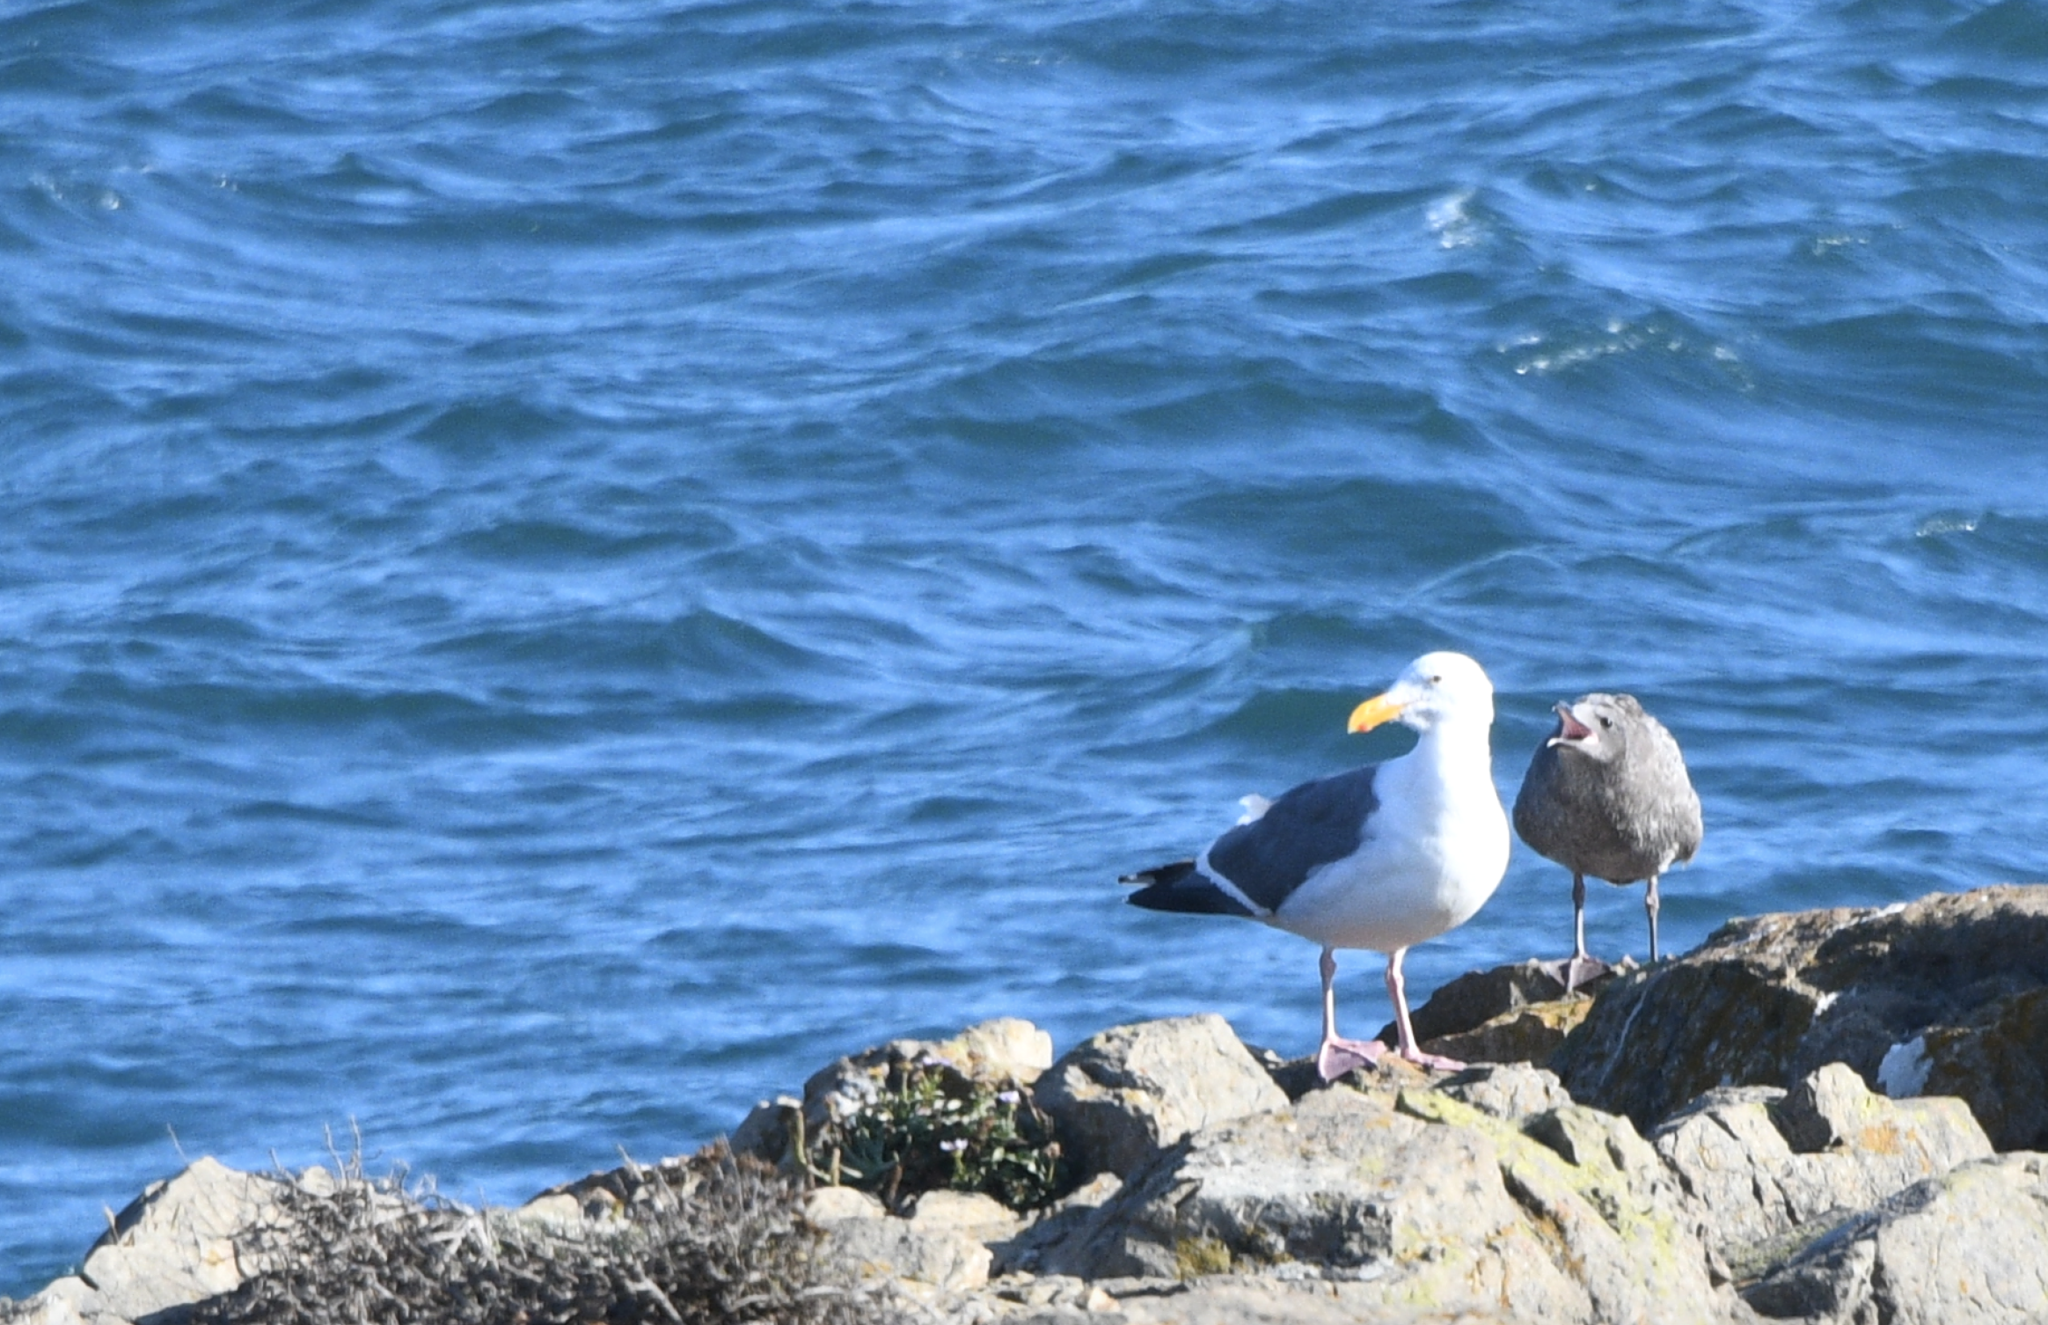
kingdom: Animalia
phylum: Chordata
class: Aves
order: Charadriiformes
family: Laridae
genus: Larus
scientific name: Larus occidentalis
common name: Western gull
